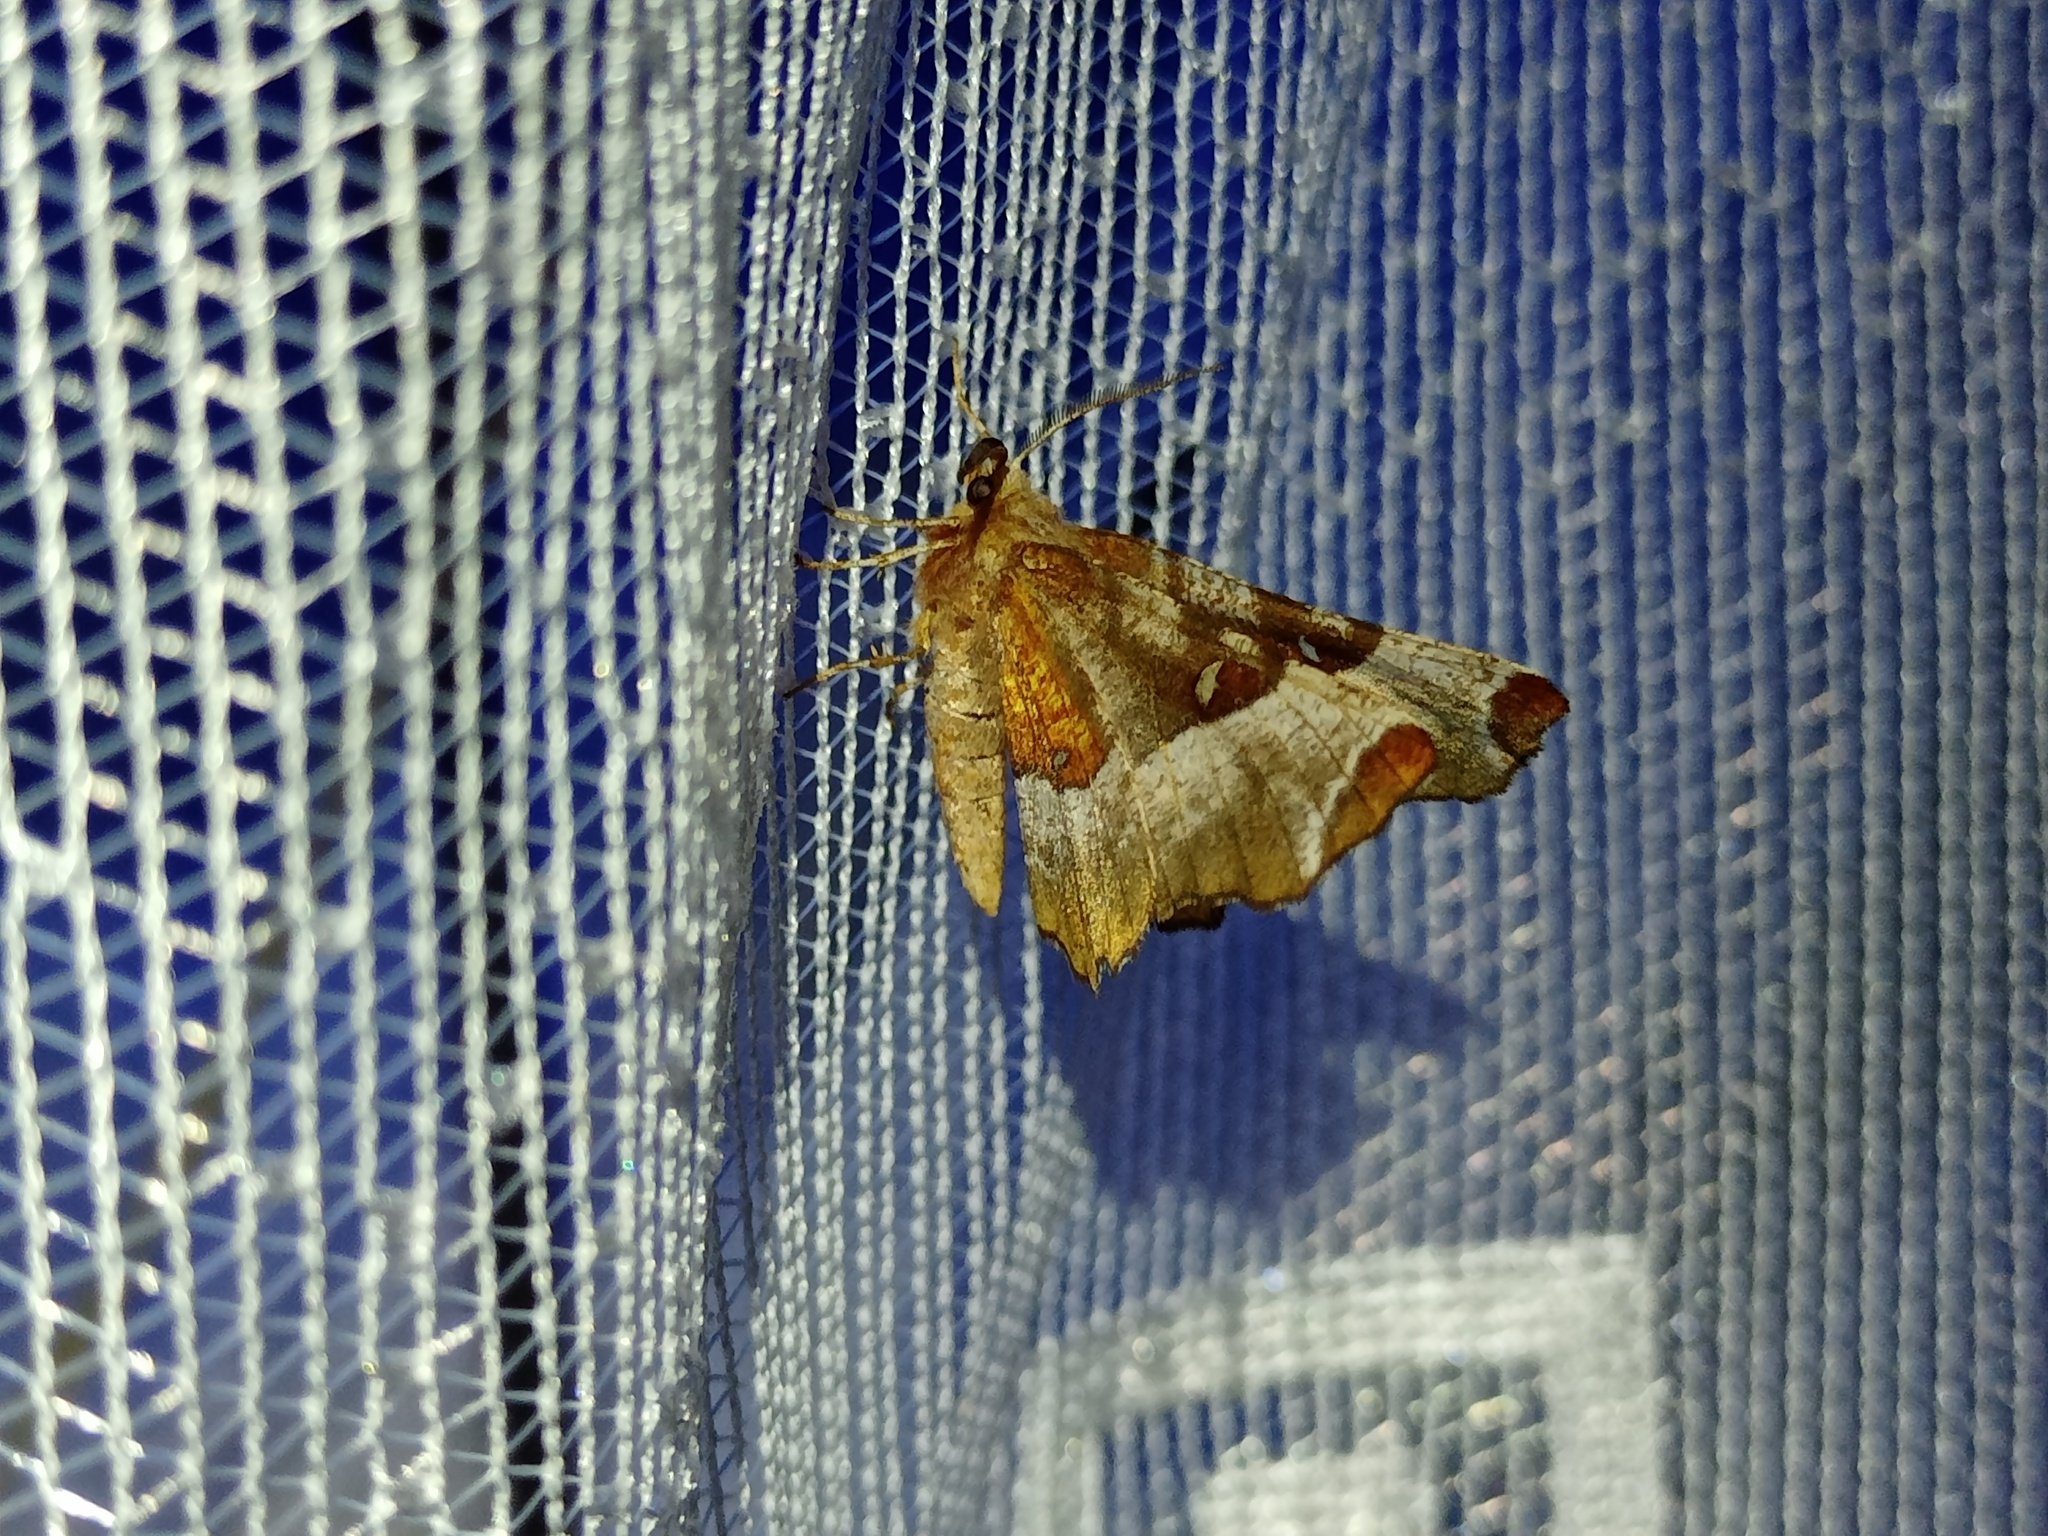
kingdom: Animalia
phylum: Arthropoda
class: Insecta
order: Lepidoptera
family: Geometridae
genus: Selenia
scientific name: Selenia tetralunaria
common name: Purple thorn
